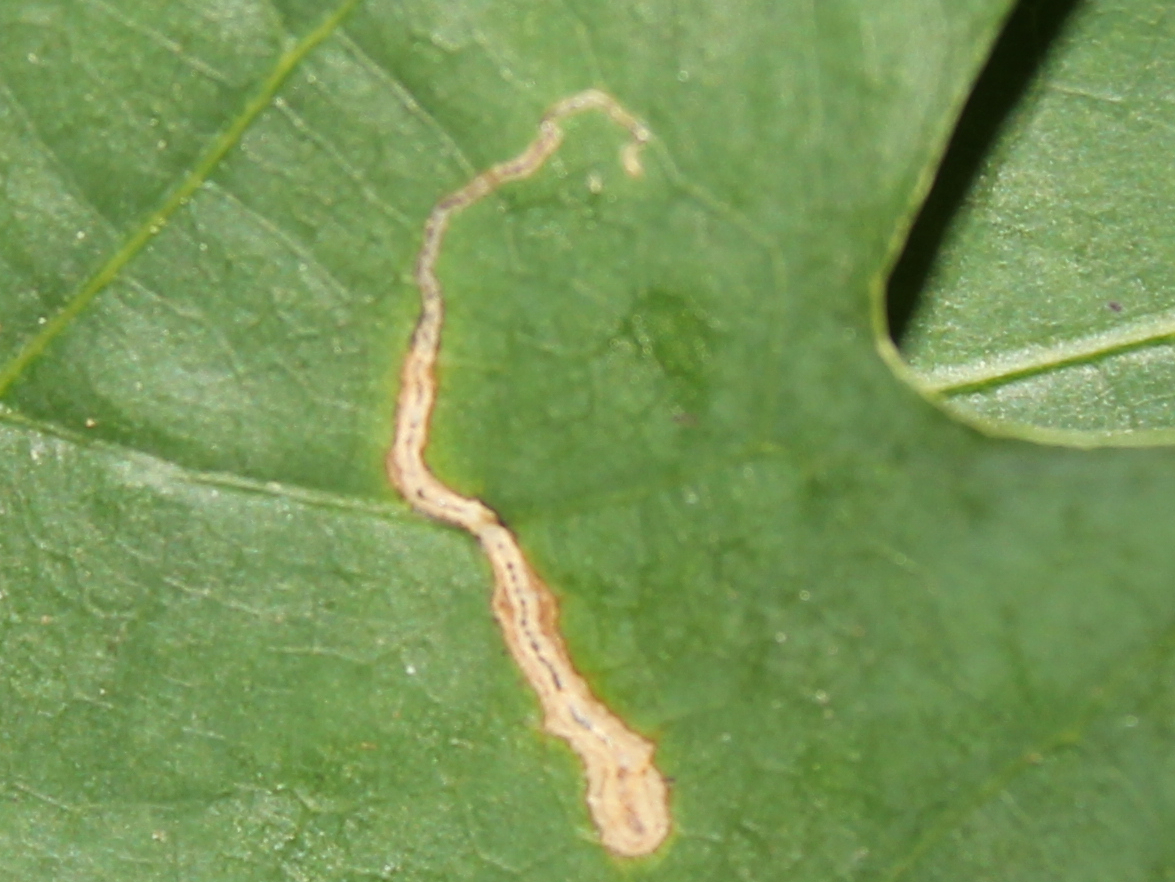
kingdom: Animalia
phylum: Arthropoda
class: Insecta
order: Lepidoptera
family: Nepticulidae
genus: Stigmella
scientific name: Stigmella
